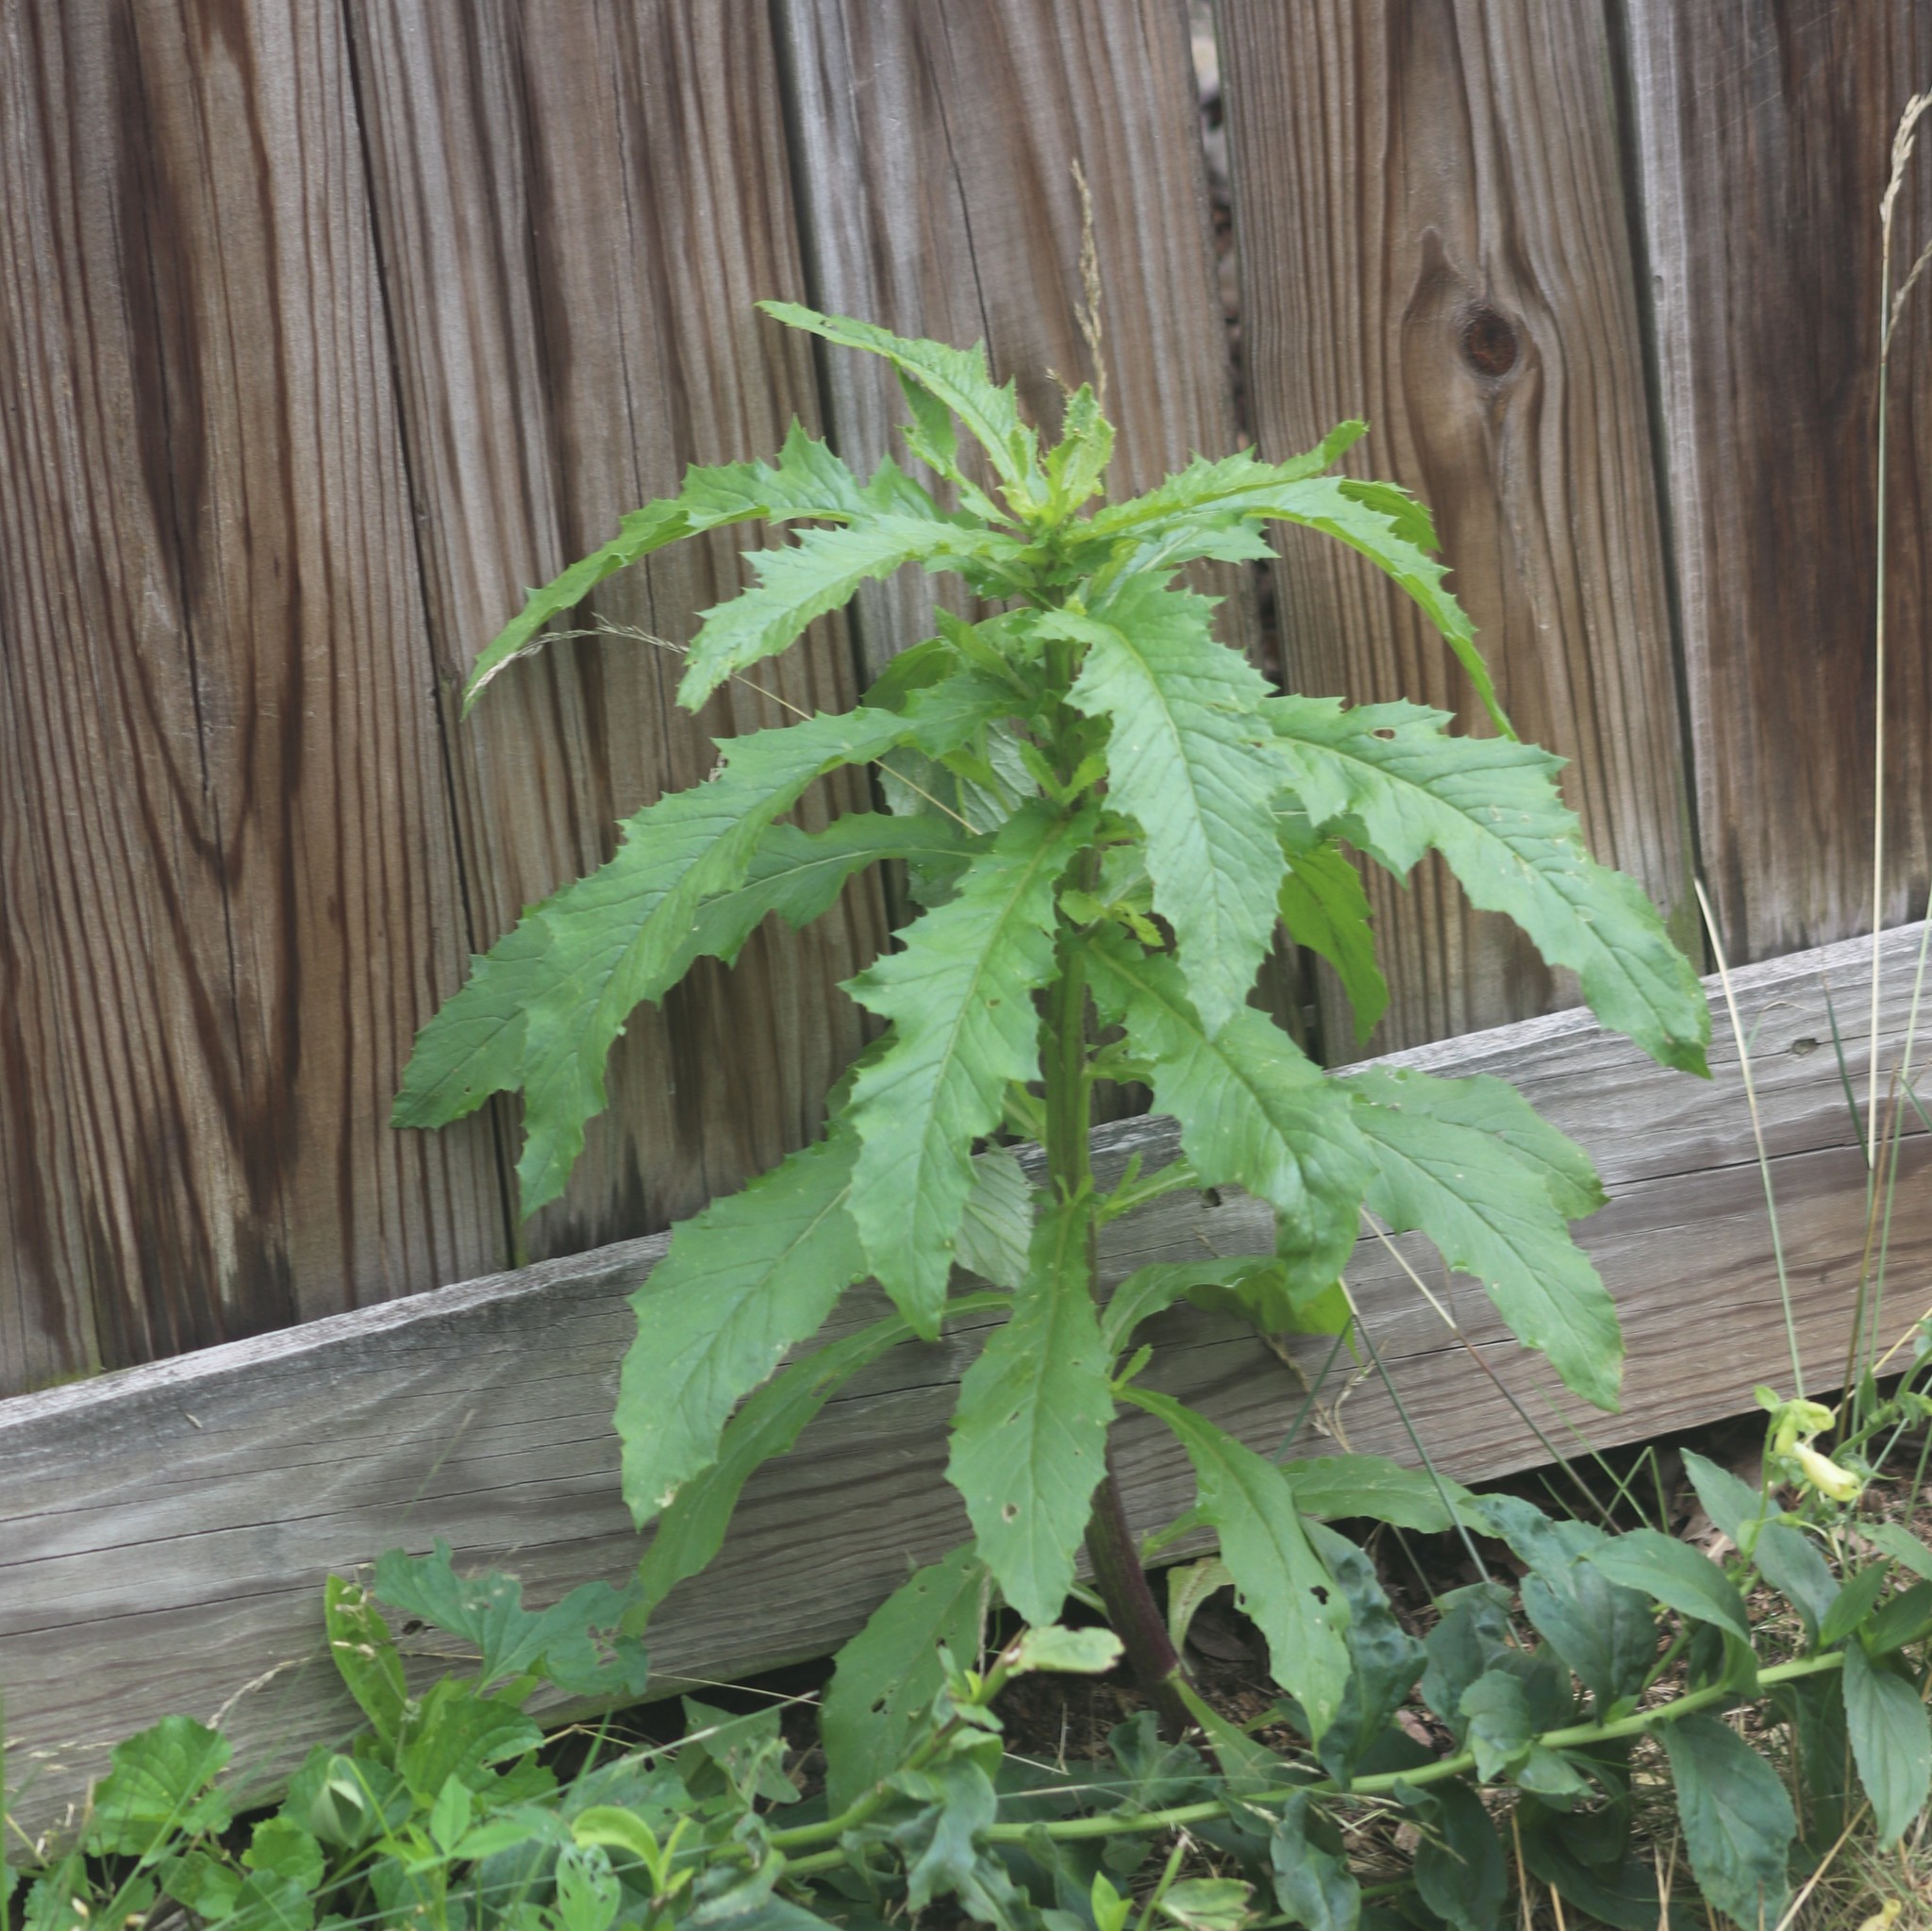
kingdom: Plantae
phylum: Tracheophyta
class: Magnoliopsida
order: Asterales
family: Asteraceae
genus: Erechtites
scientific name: Erechtites hieraciifolius
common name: American burnweed
